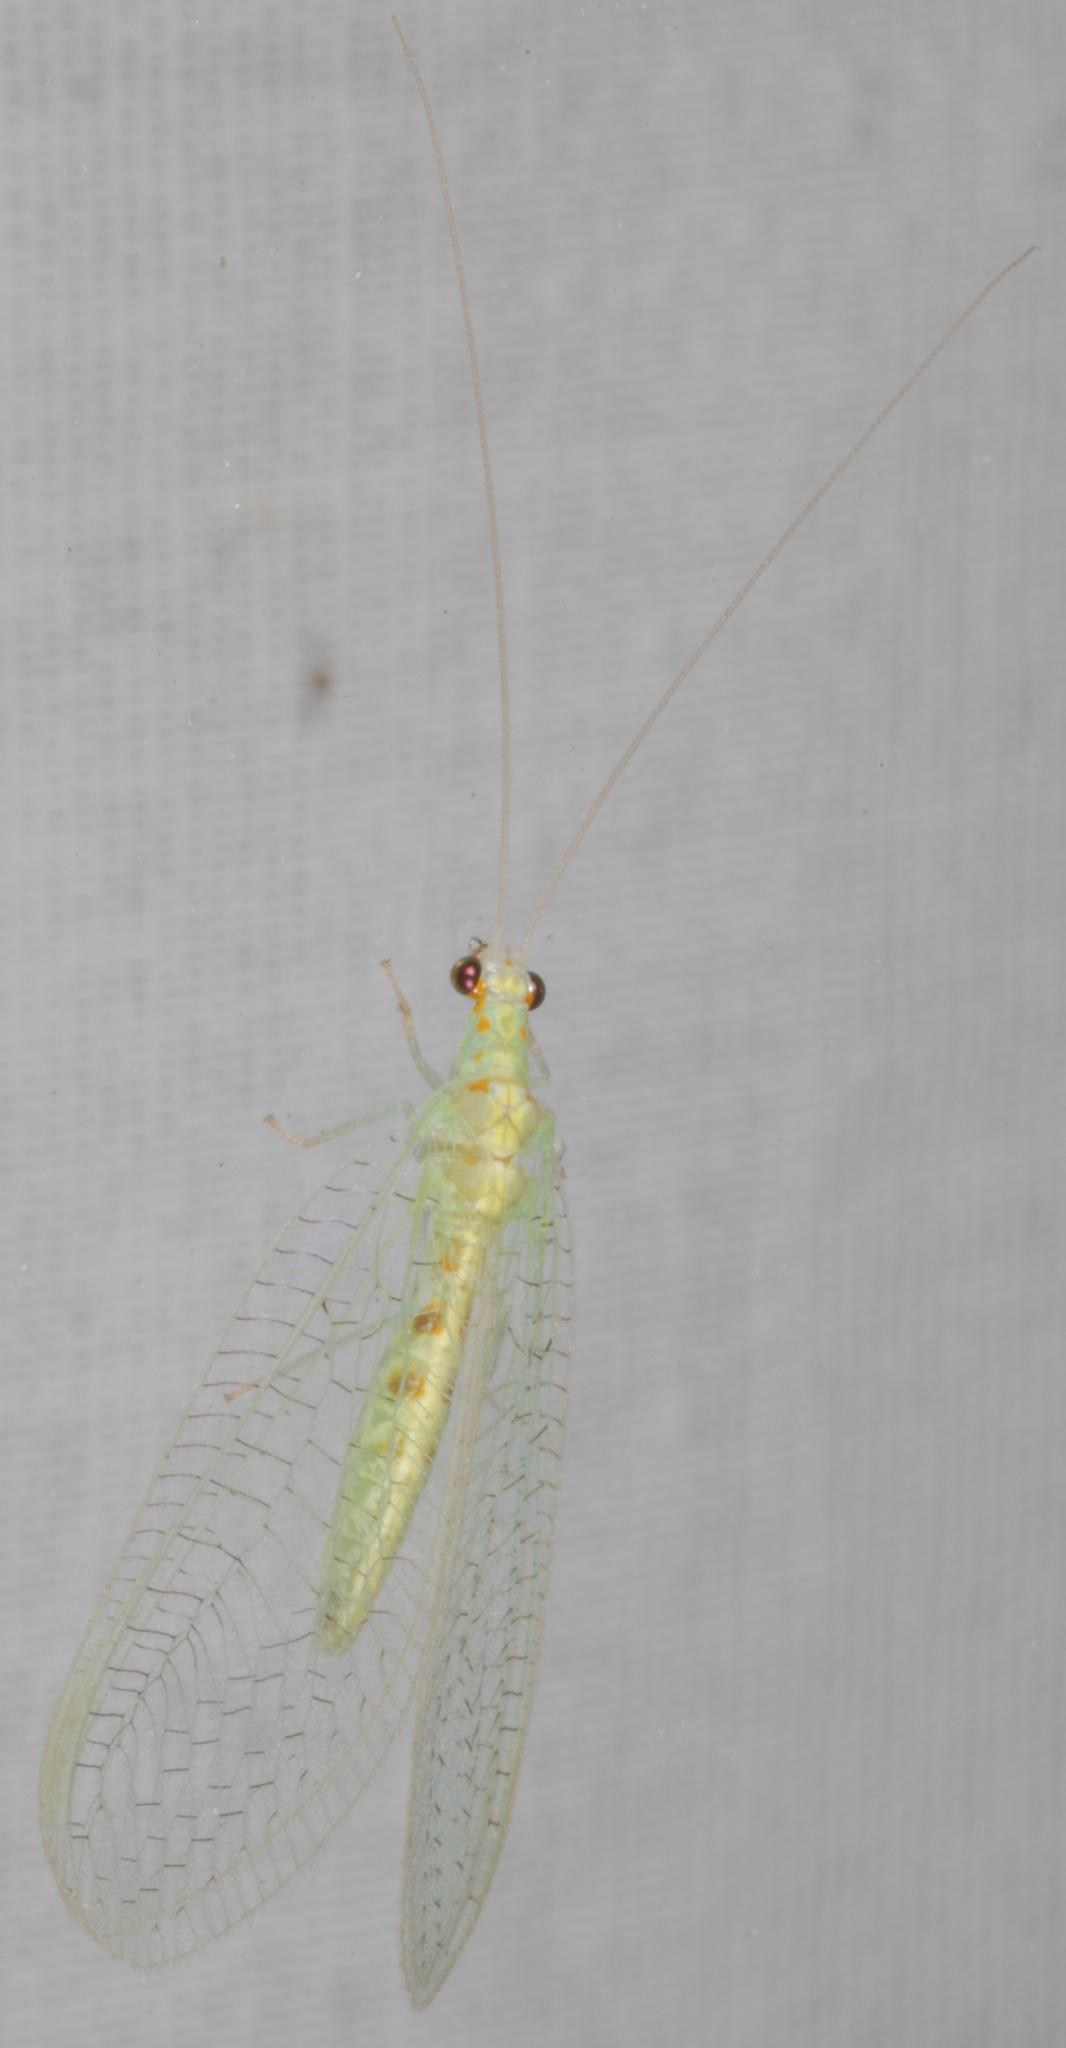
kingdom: Animalia
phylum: Arthropoda
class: Insecta
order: Neuroptera
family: Chrysopidae
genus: Chrysopa
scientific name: Chrysopa quadripunctata
